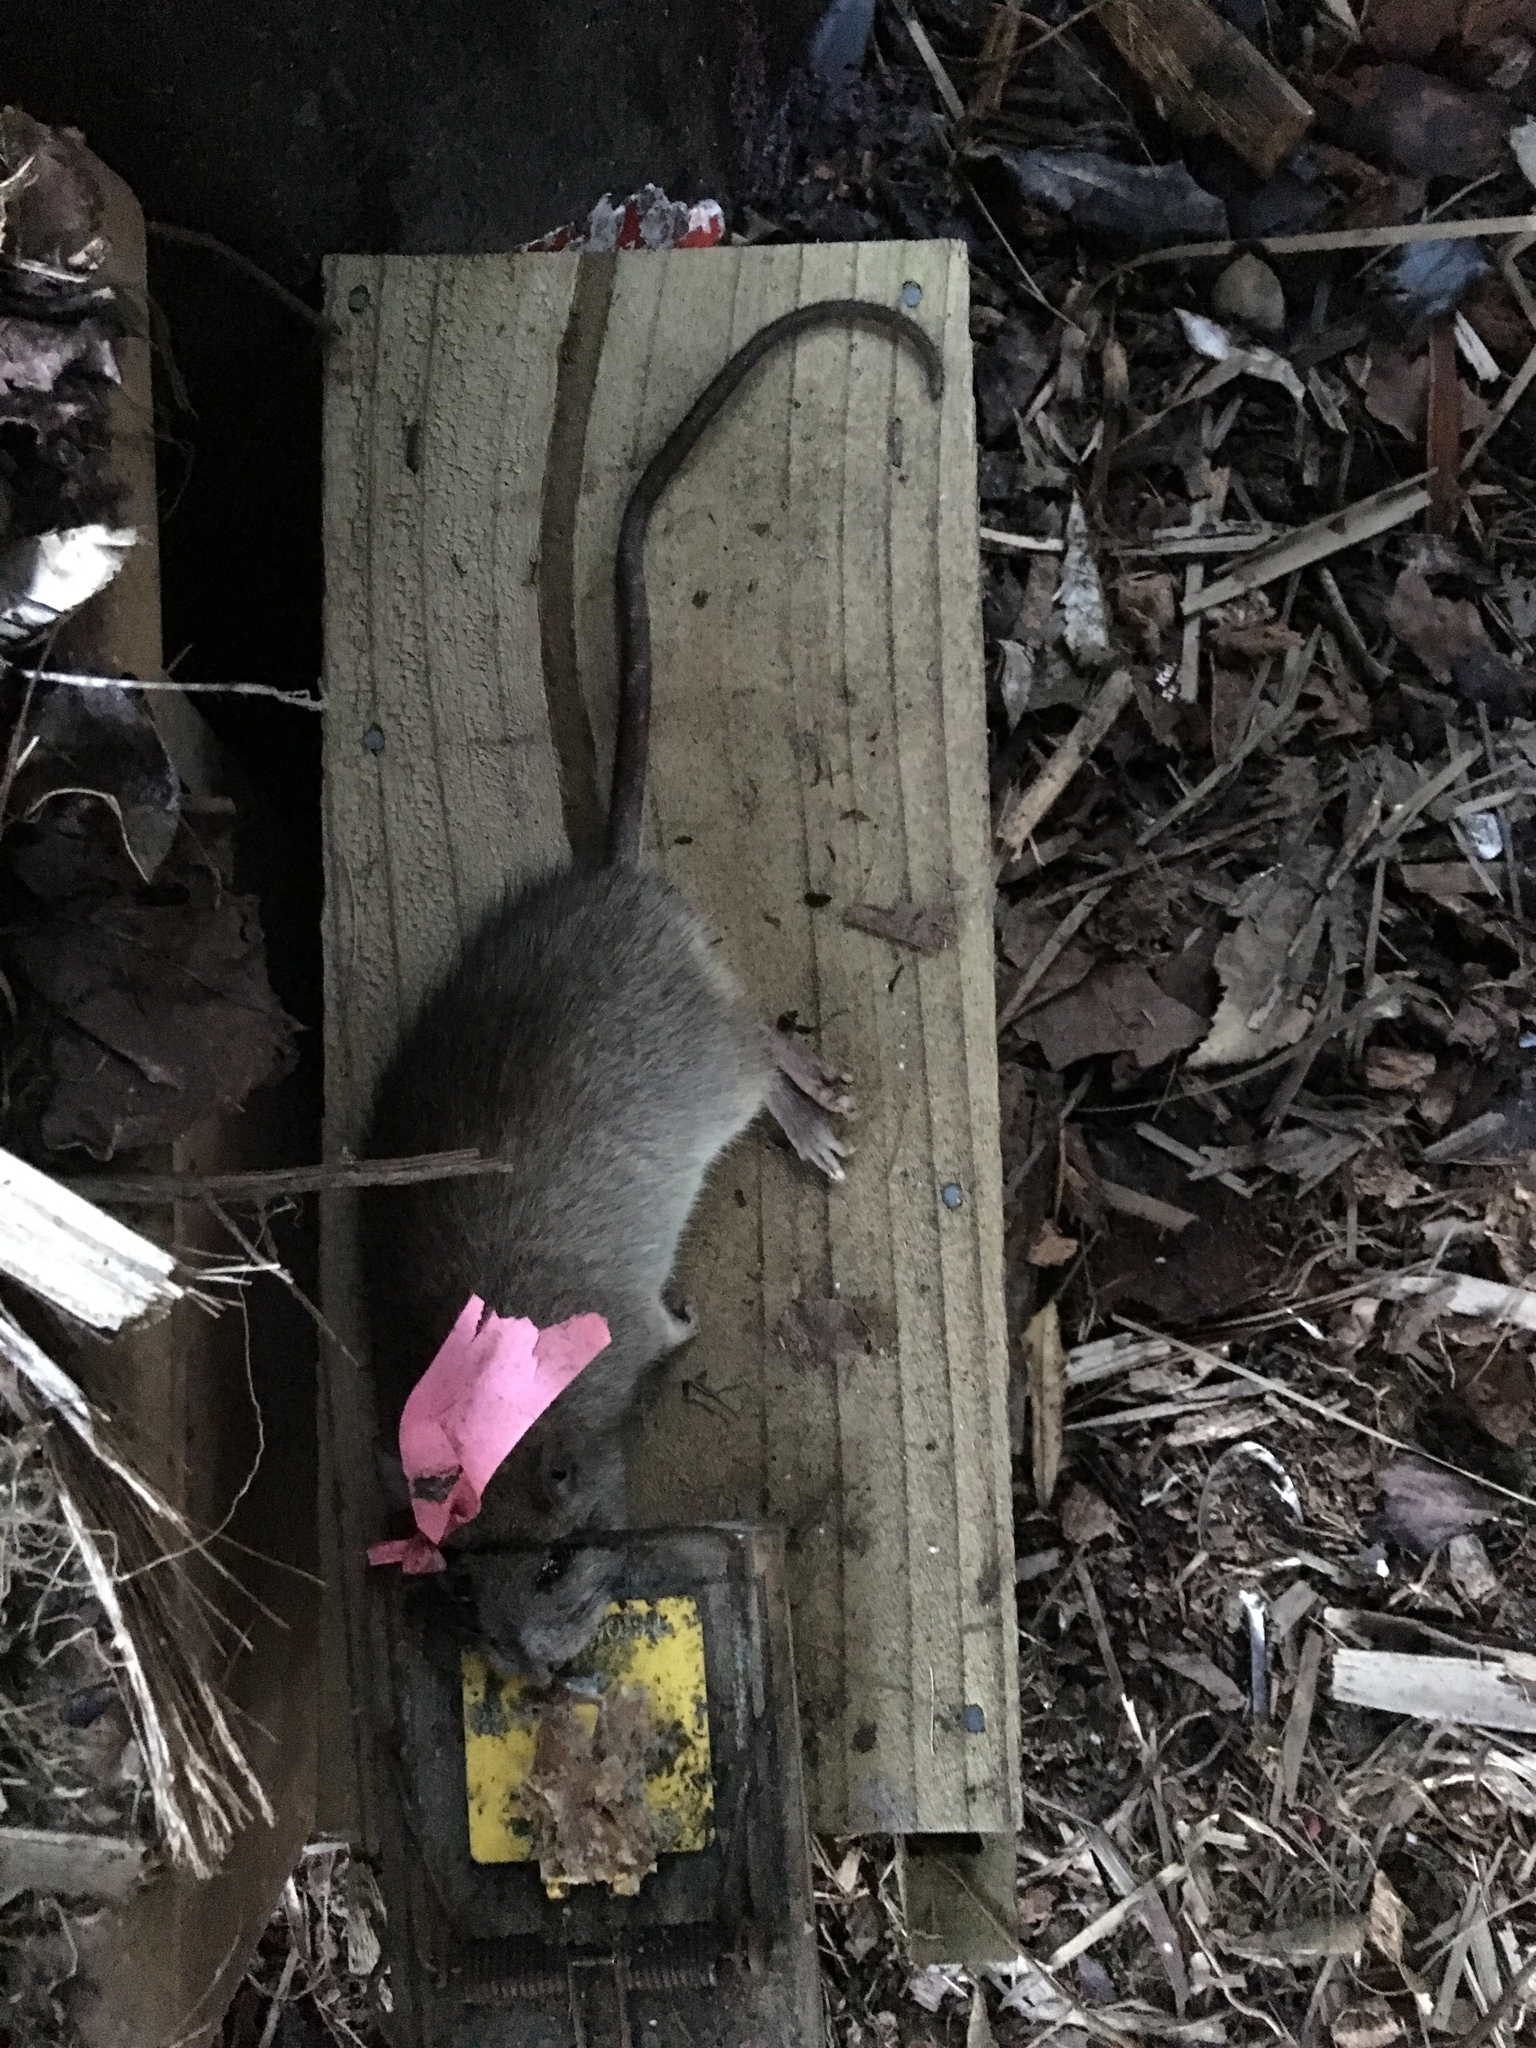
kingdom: Animalia
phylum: Chordata
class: Mammalia
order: Rodentia
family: Muridae
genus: Rattus
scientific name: Rattus rattus
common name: Black rat
